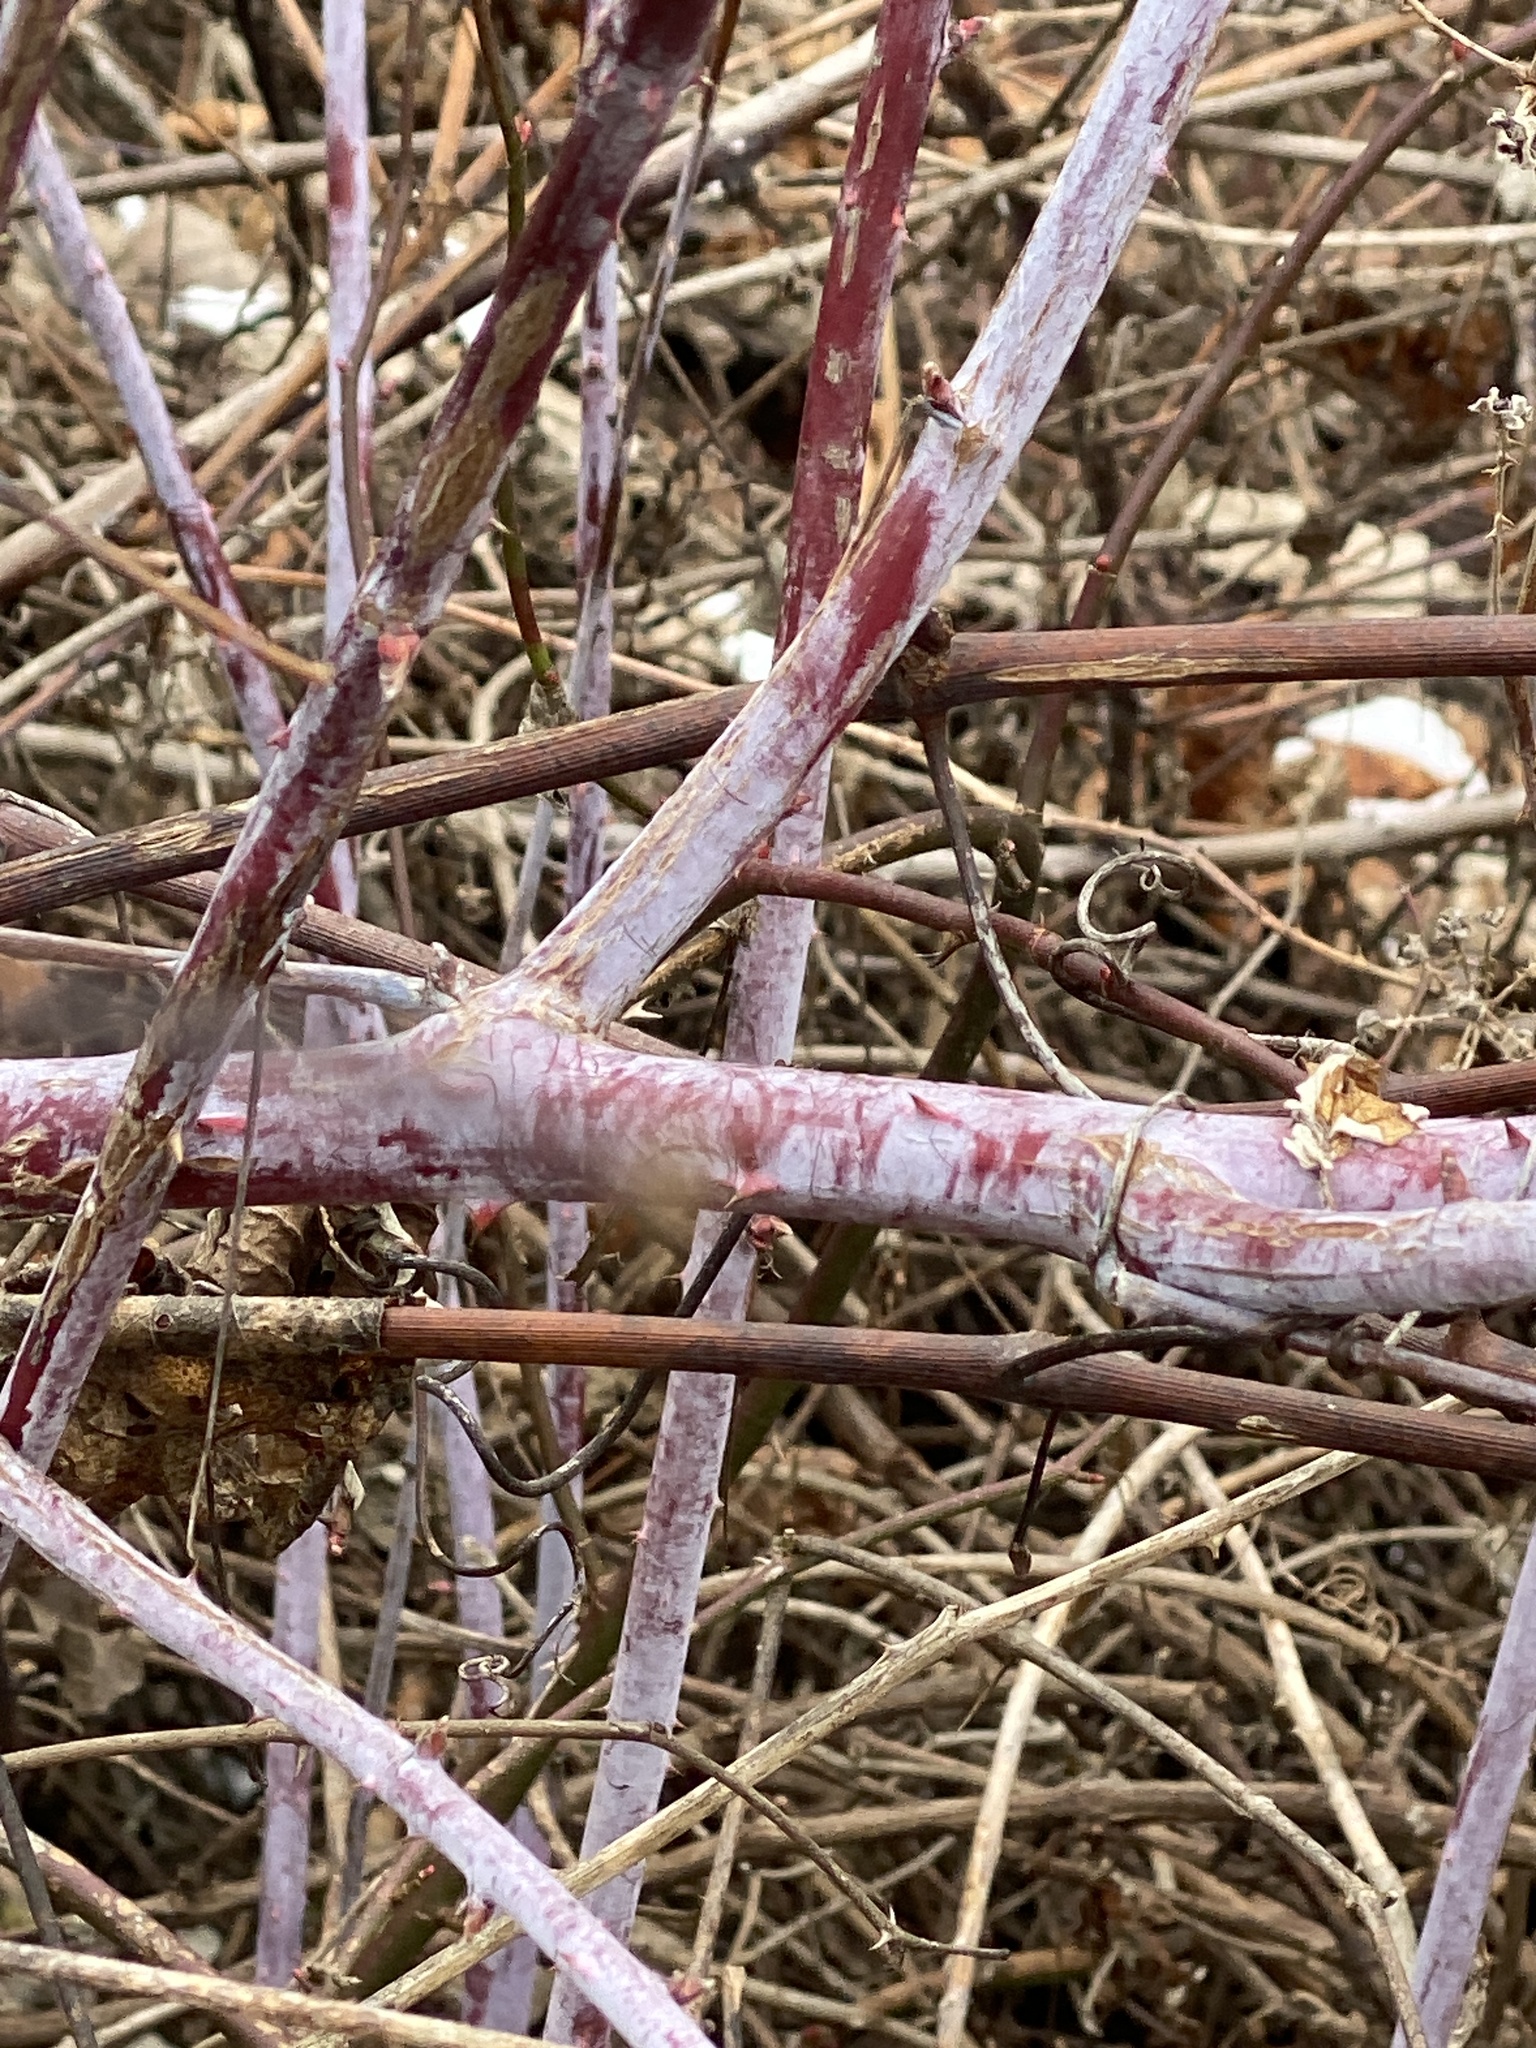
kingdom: Plantae
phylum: Tracheophyta
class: Magnoliopsida
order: Rosales
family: Rosaceae
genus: Rubus
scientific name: Rubus occidentalis
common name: Black raspberry
